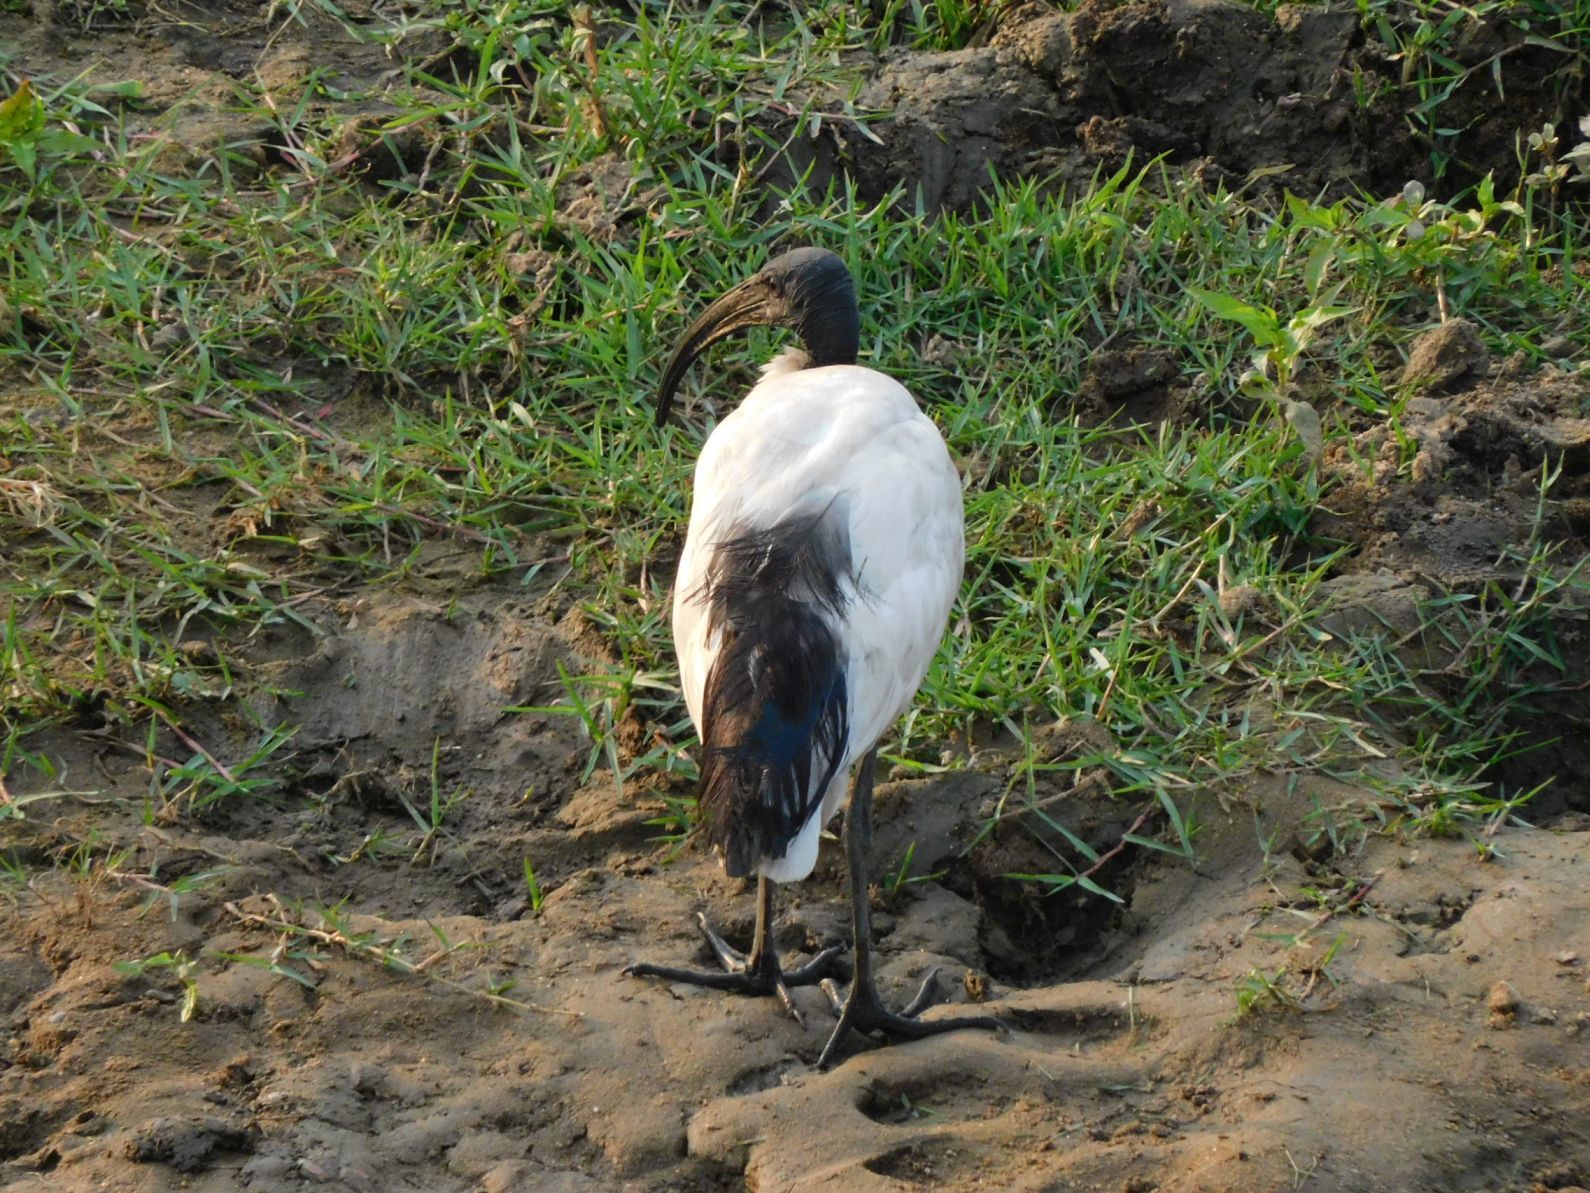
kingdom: Animalia
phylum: Chordata
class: Aves
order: Pelecaniformes
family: Threskiornithidae
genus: Threskiornis
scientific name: Threskiornis aethiopicus
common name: Sacred ibis
